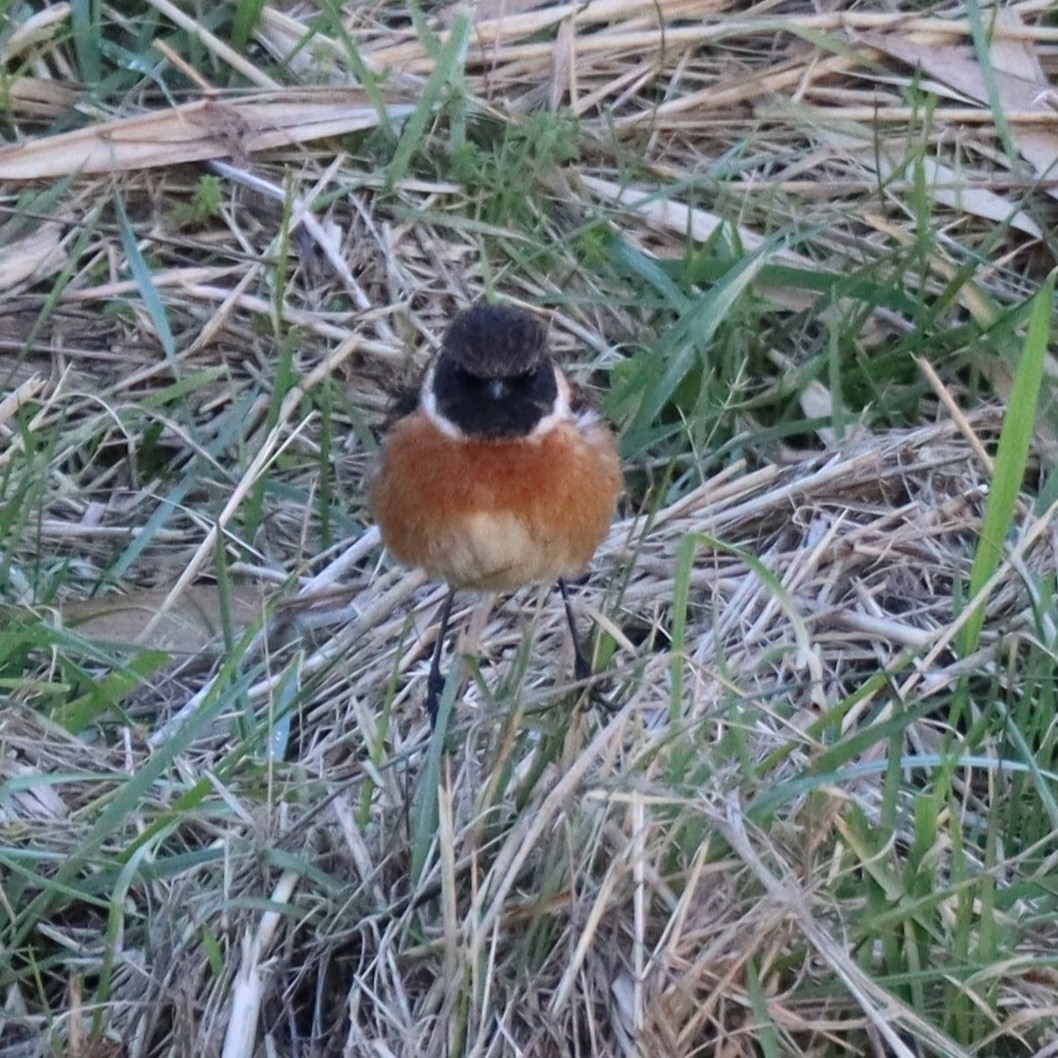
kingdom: Animalia
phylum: Chordata
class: Aves
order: Passeriformes
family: Muscicapidae
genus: Saxicola
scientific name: Saxicola rubicola
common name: European stonechat
